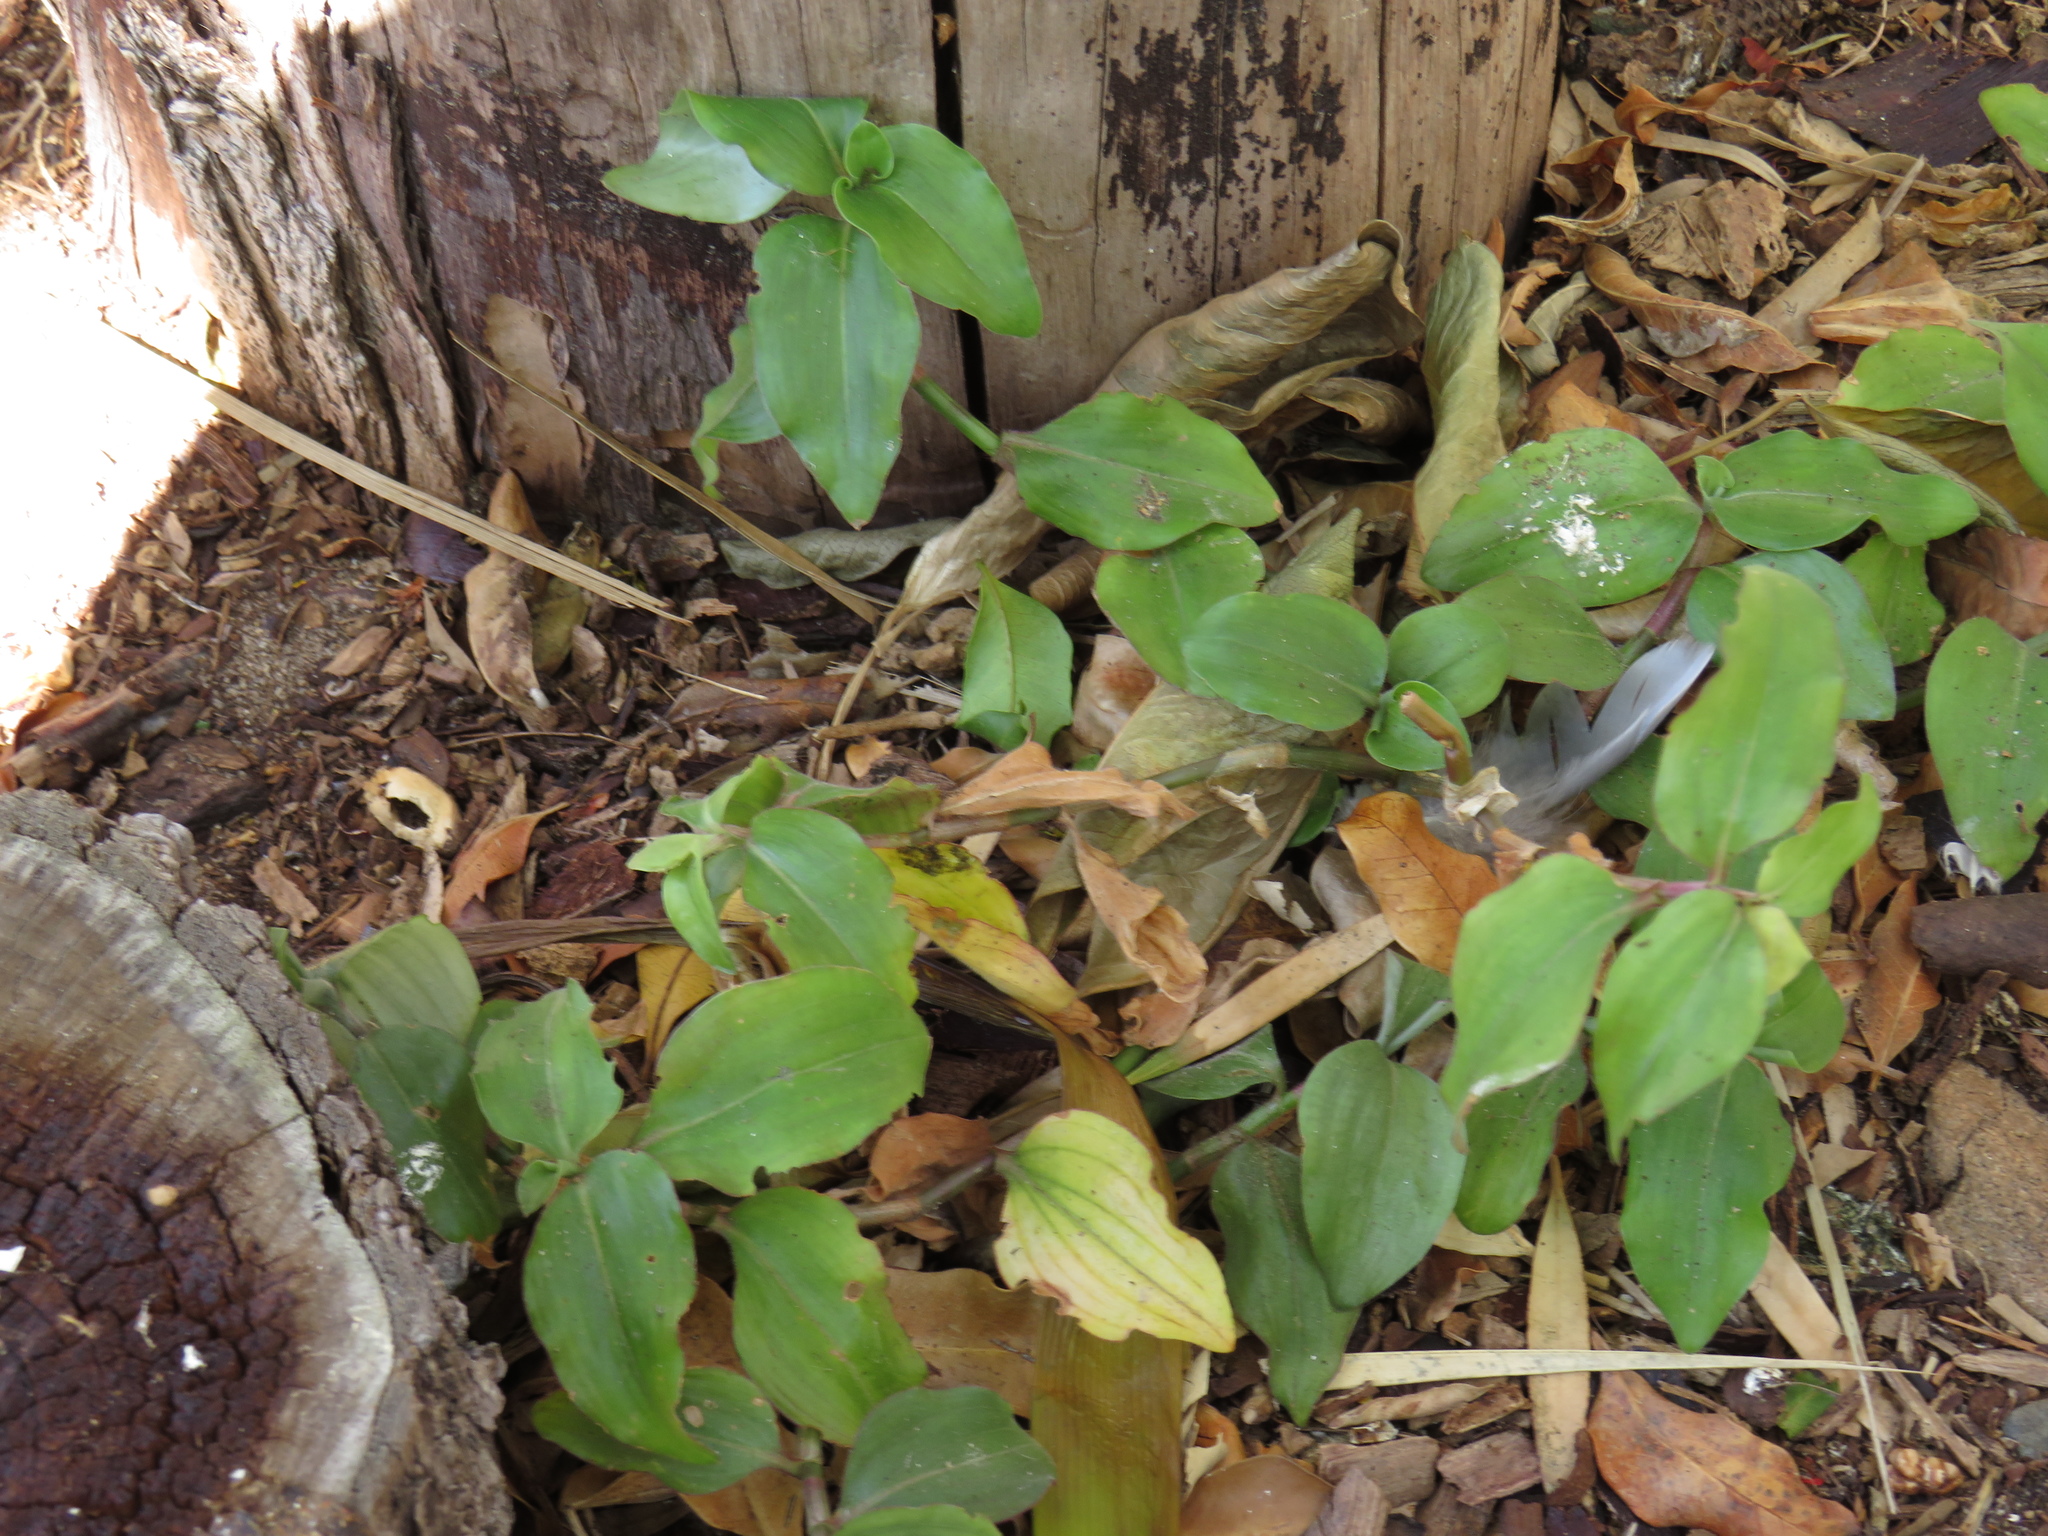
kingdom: Plantae
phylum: Tracheophyta
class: Liliopsida
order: Commelinales
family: Commelinaceae
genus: Commelina
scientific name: Commelina benghalensis
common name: Jio
